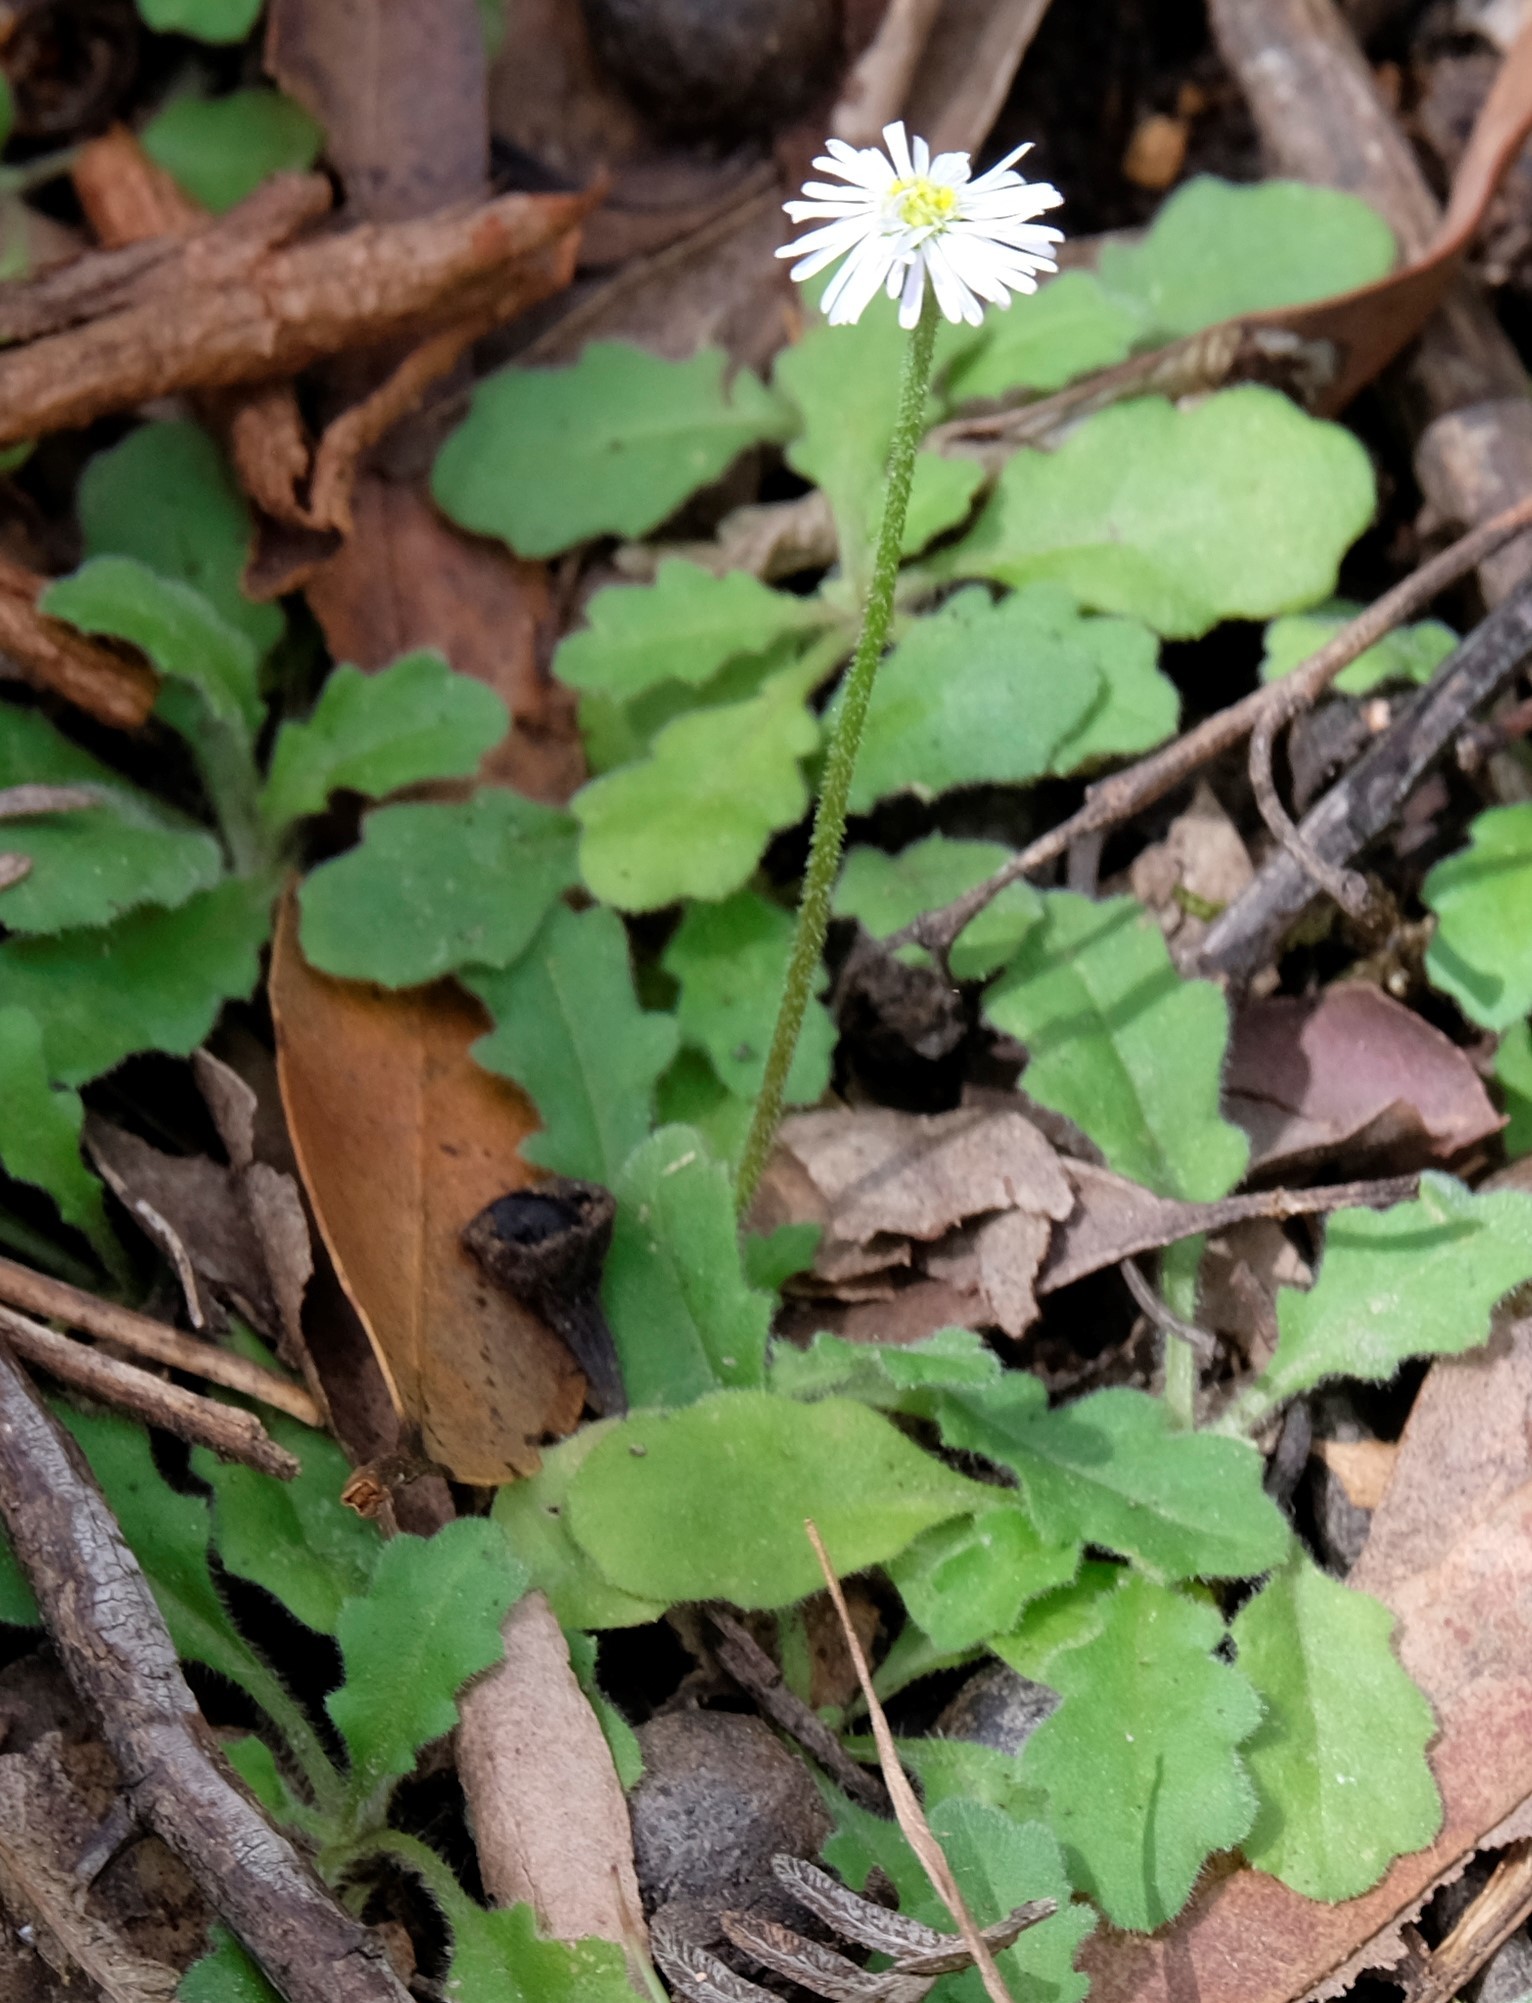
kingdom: Plantae
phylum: Tracheophyta
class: Magnoliopsida
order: Asterales
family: Asteraceae
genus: Lagenophora
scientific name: Lagenophora stipitata
